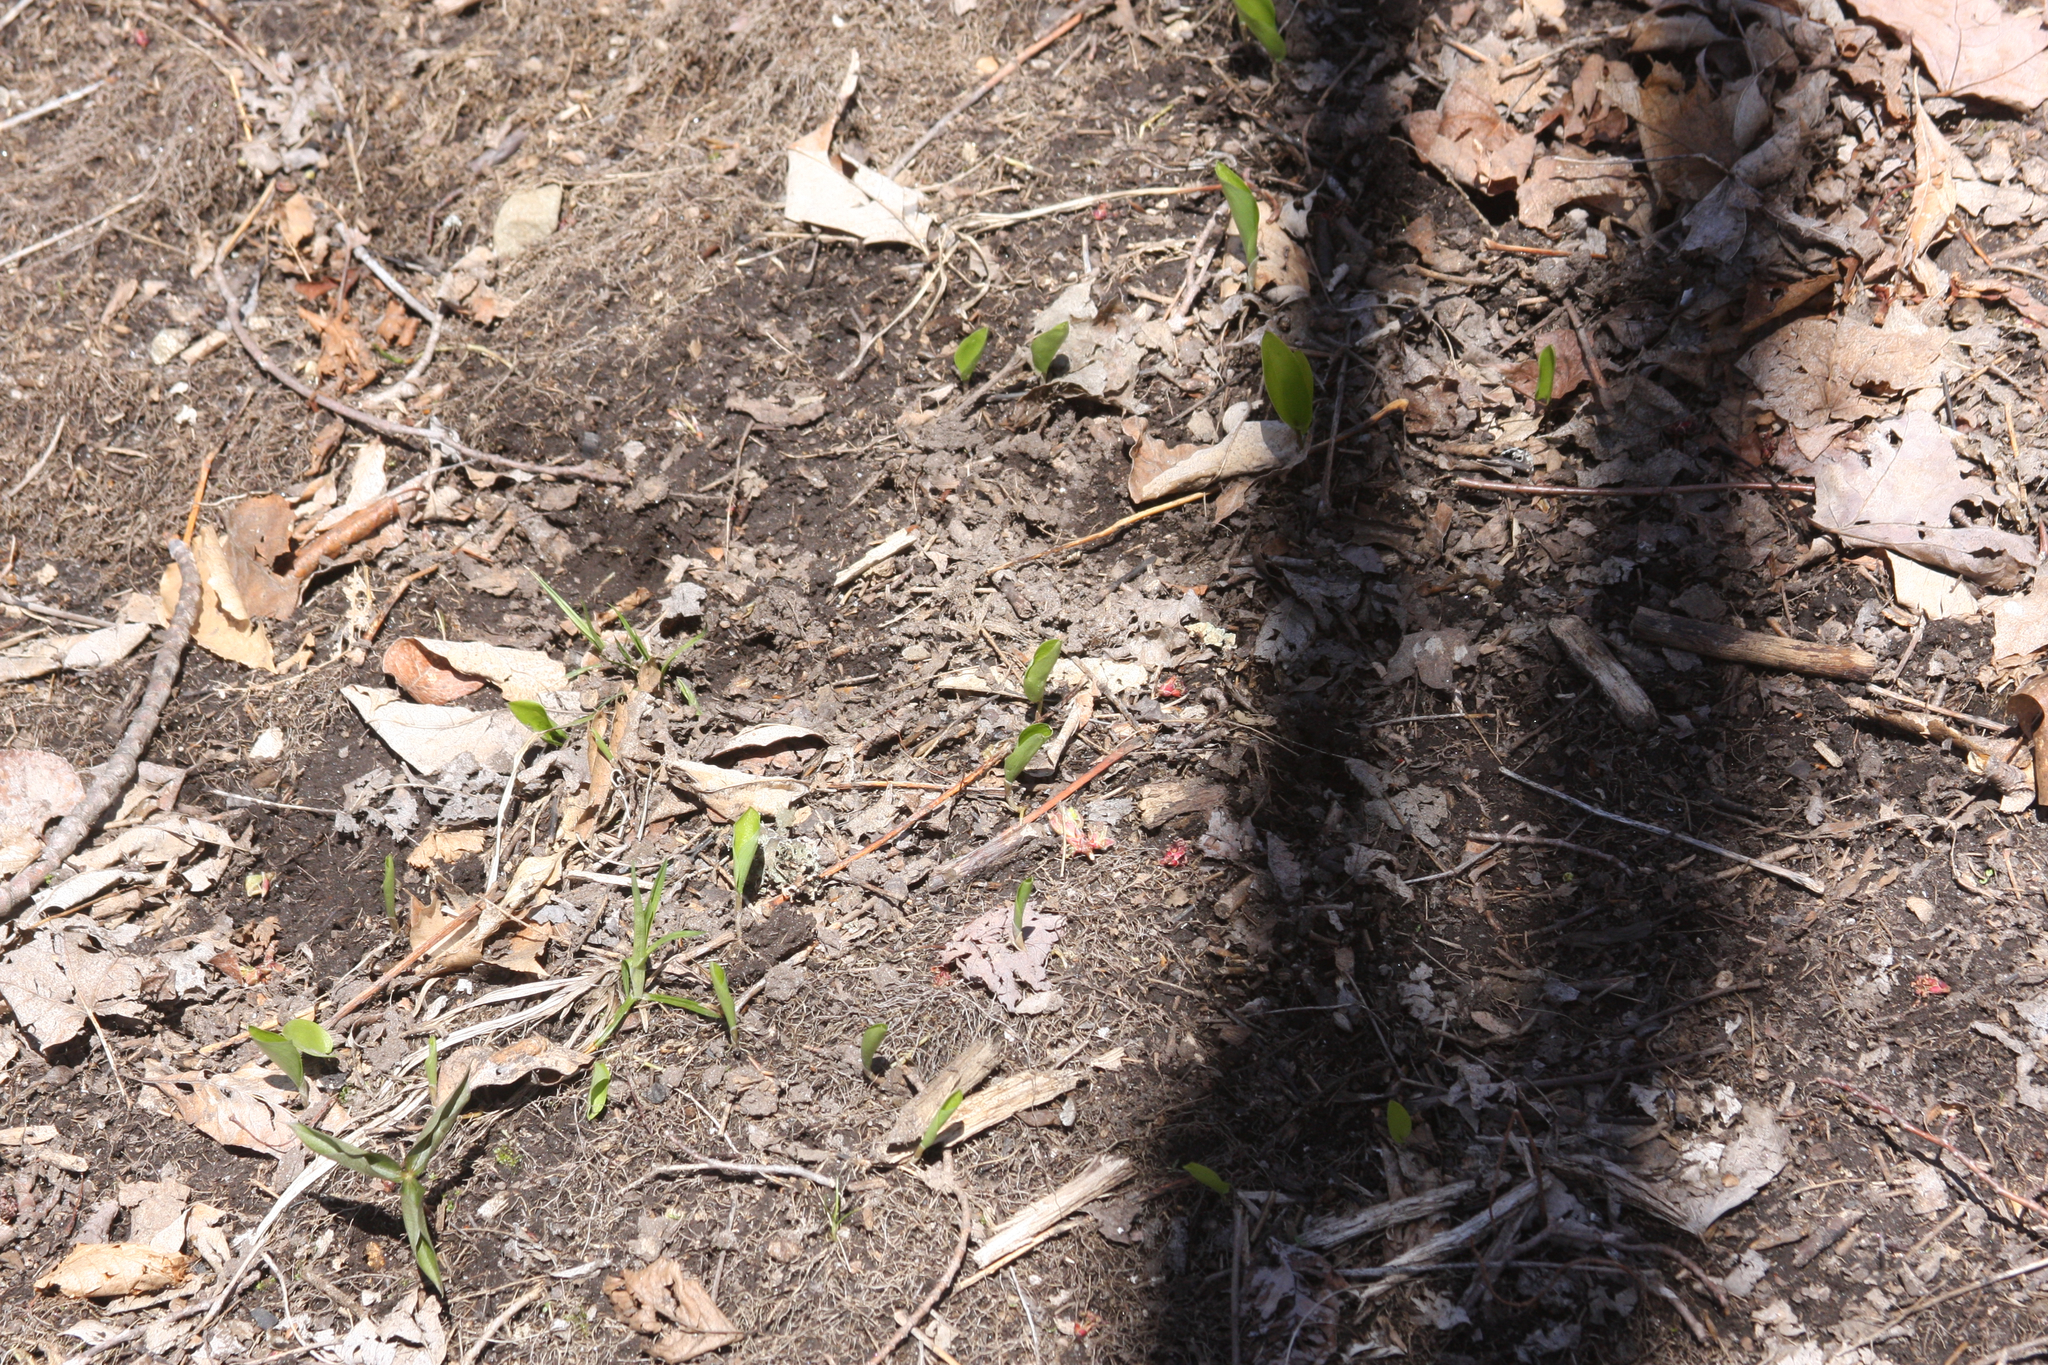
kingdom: Plantae
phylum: Tracheophyta
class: Liliopsida
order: Asparagales
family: Asparagaceae
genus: Maianthemum
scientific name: Maianthemum canadense
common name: False lily-of-the-valley
